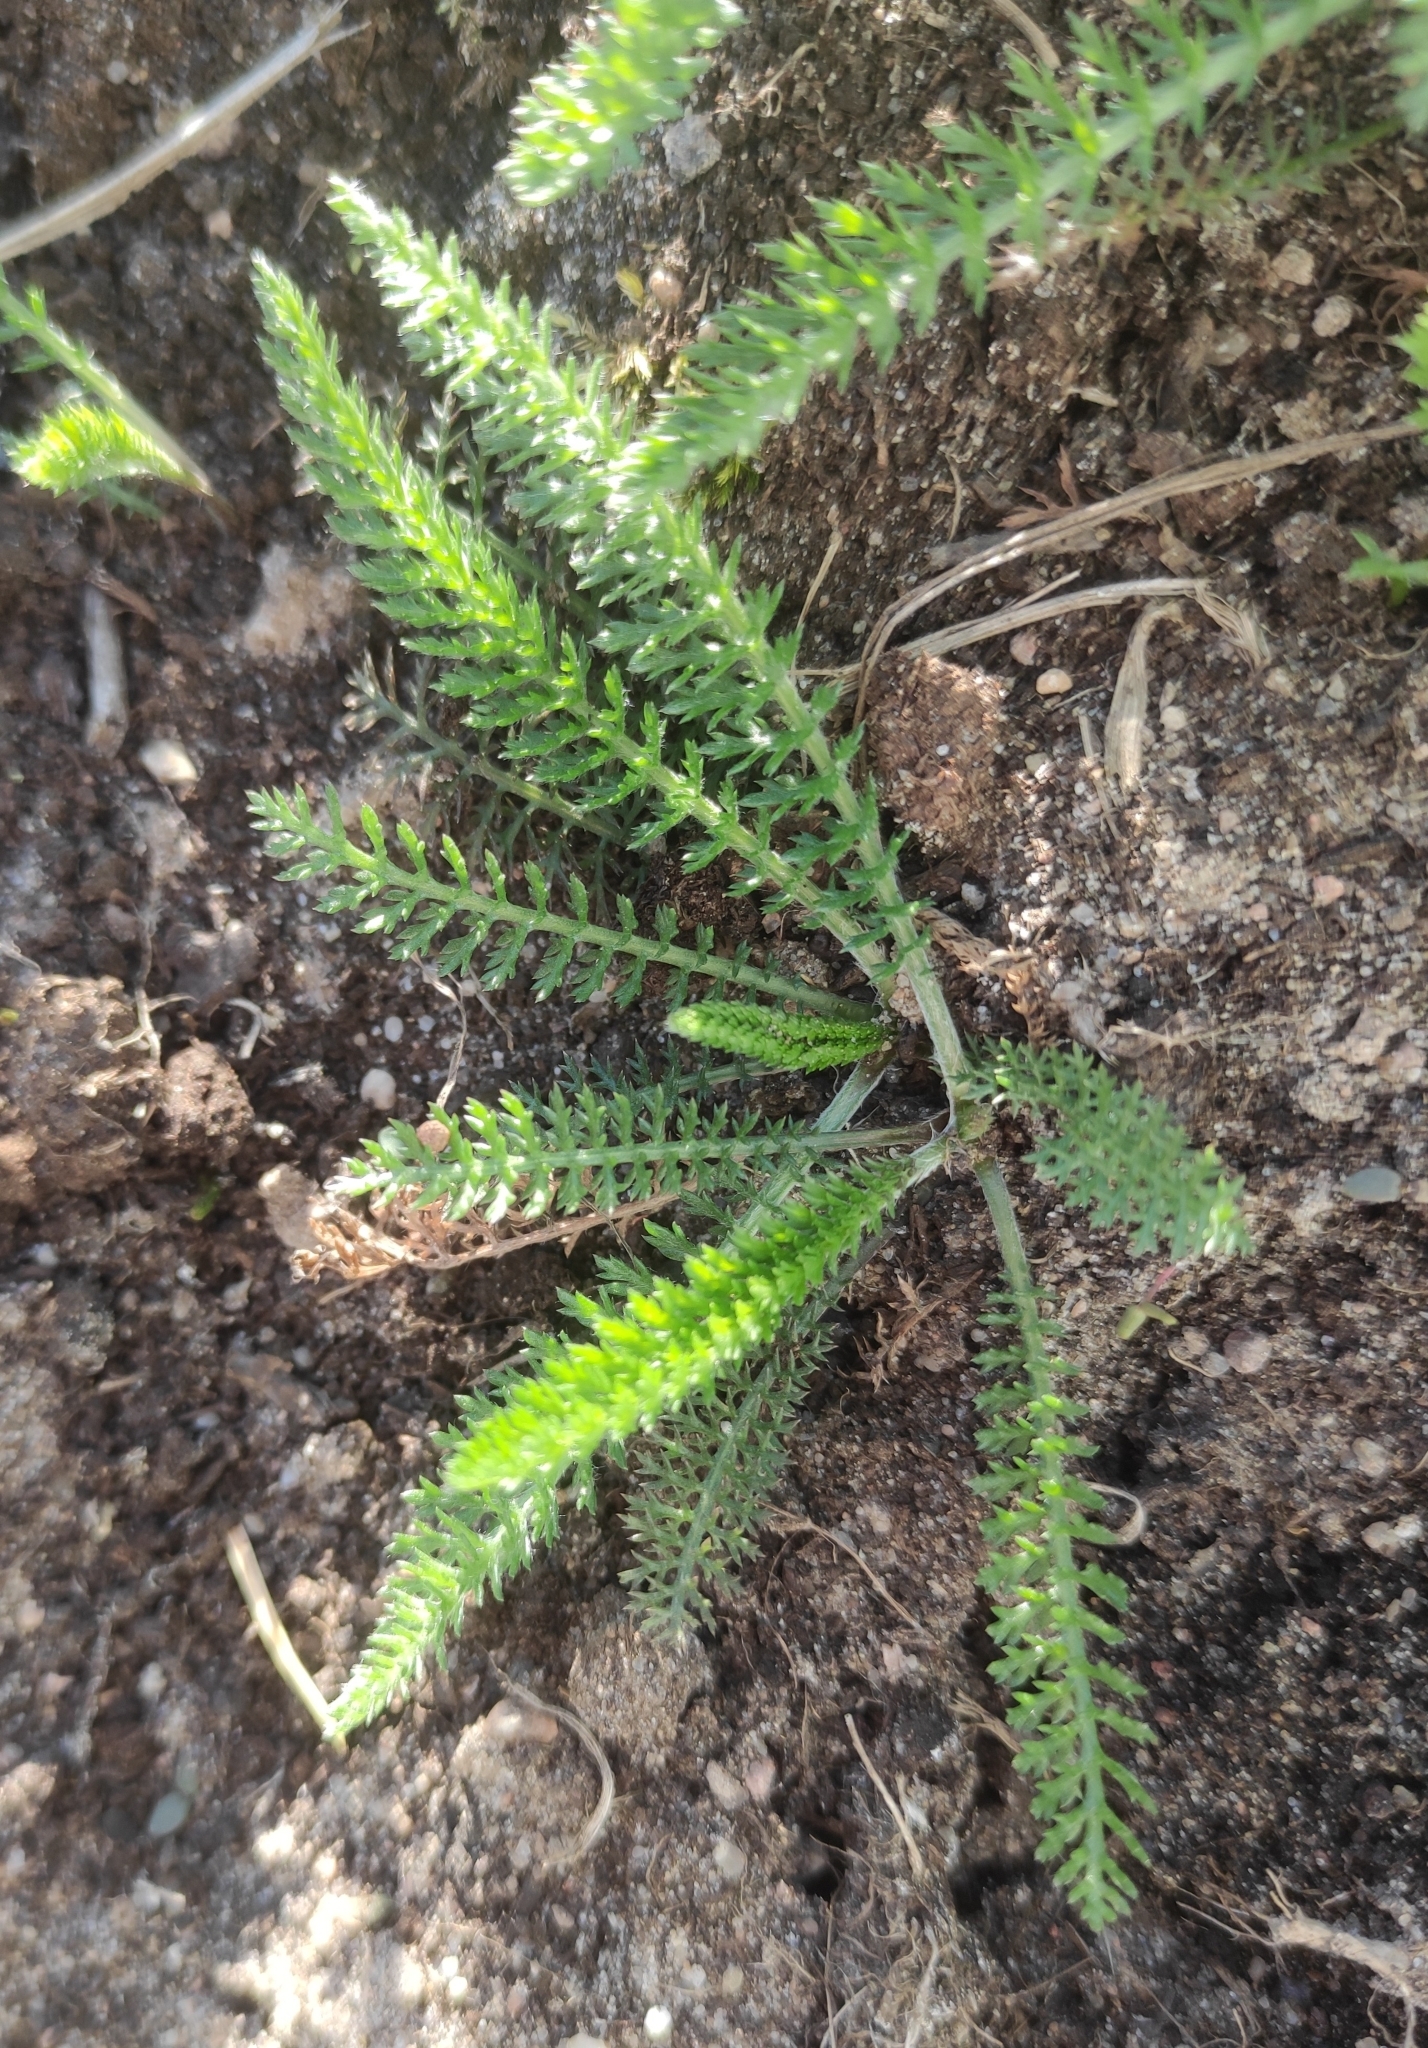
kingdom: Plantae
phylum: Tracheophyta
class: Magnoliopsida
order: Asterales
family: Asteraceae
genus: Achillea
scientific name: Achillea millefolium
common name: Yarrow
